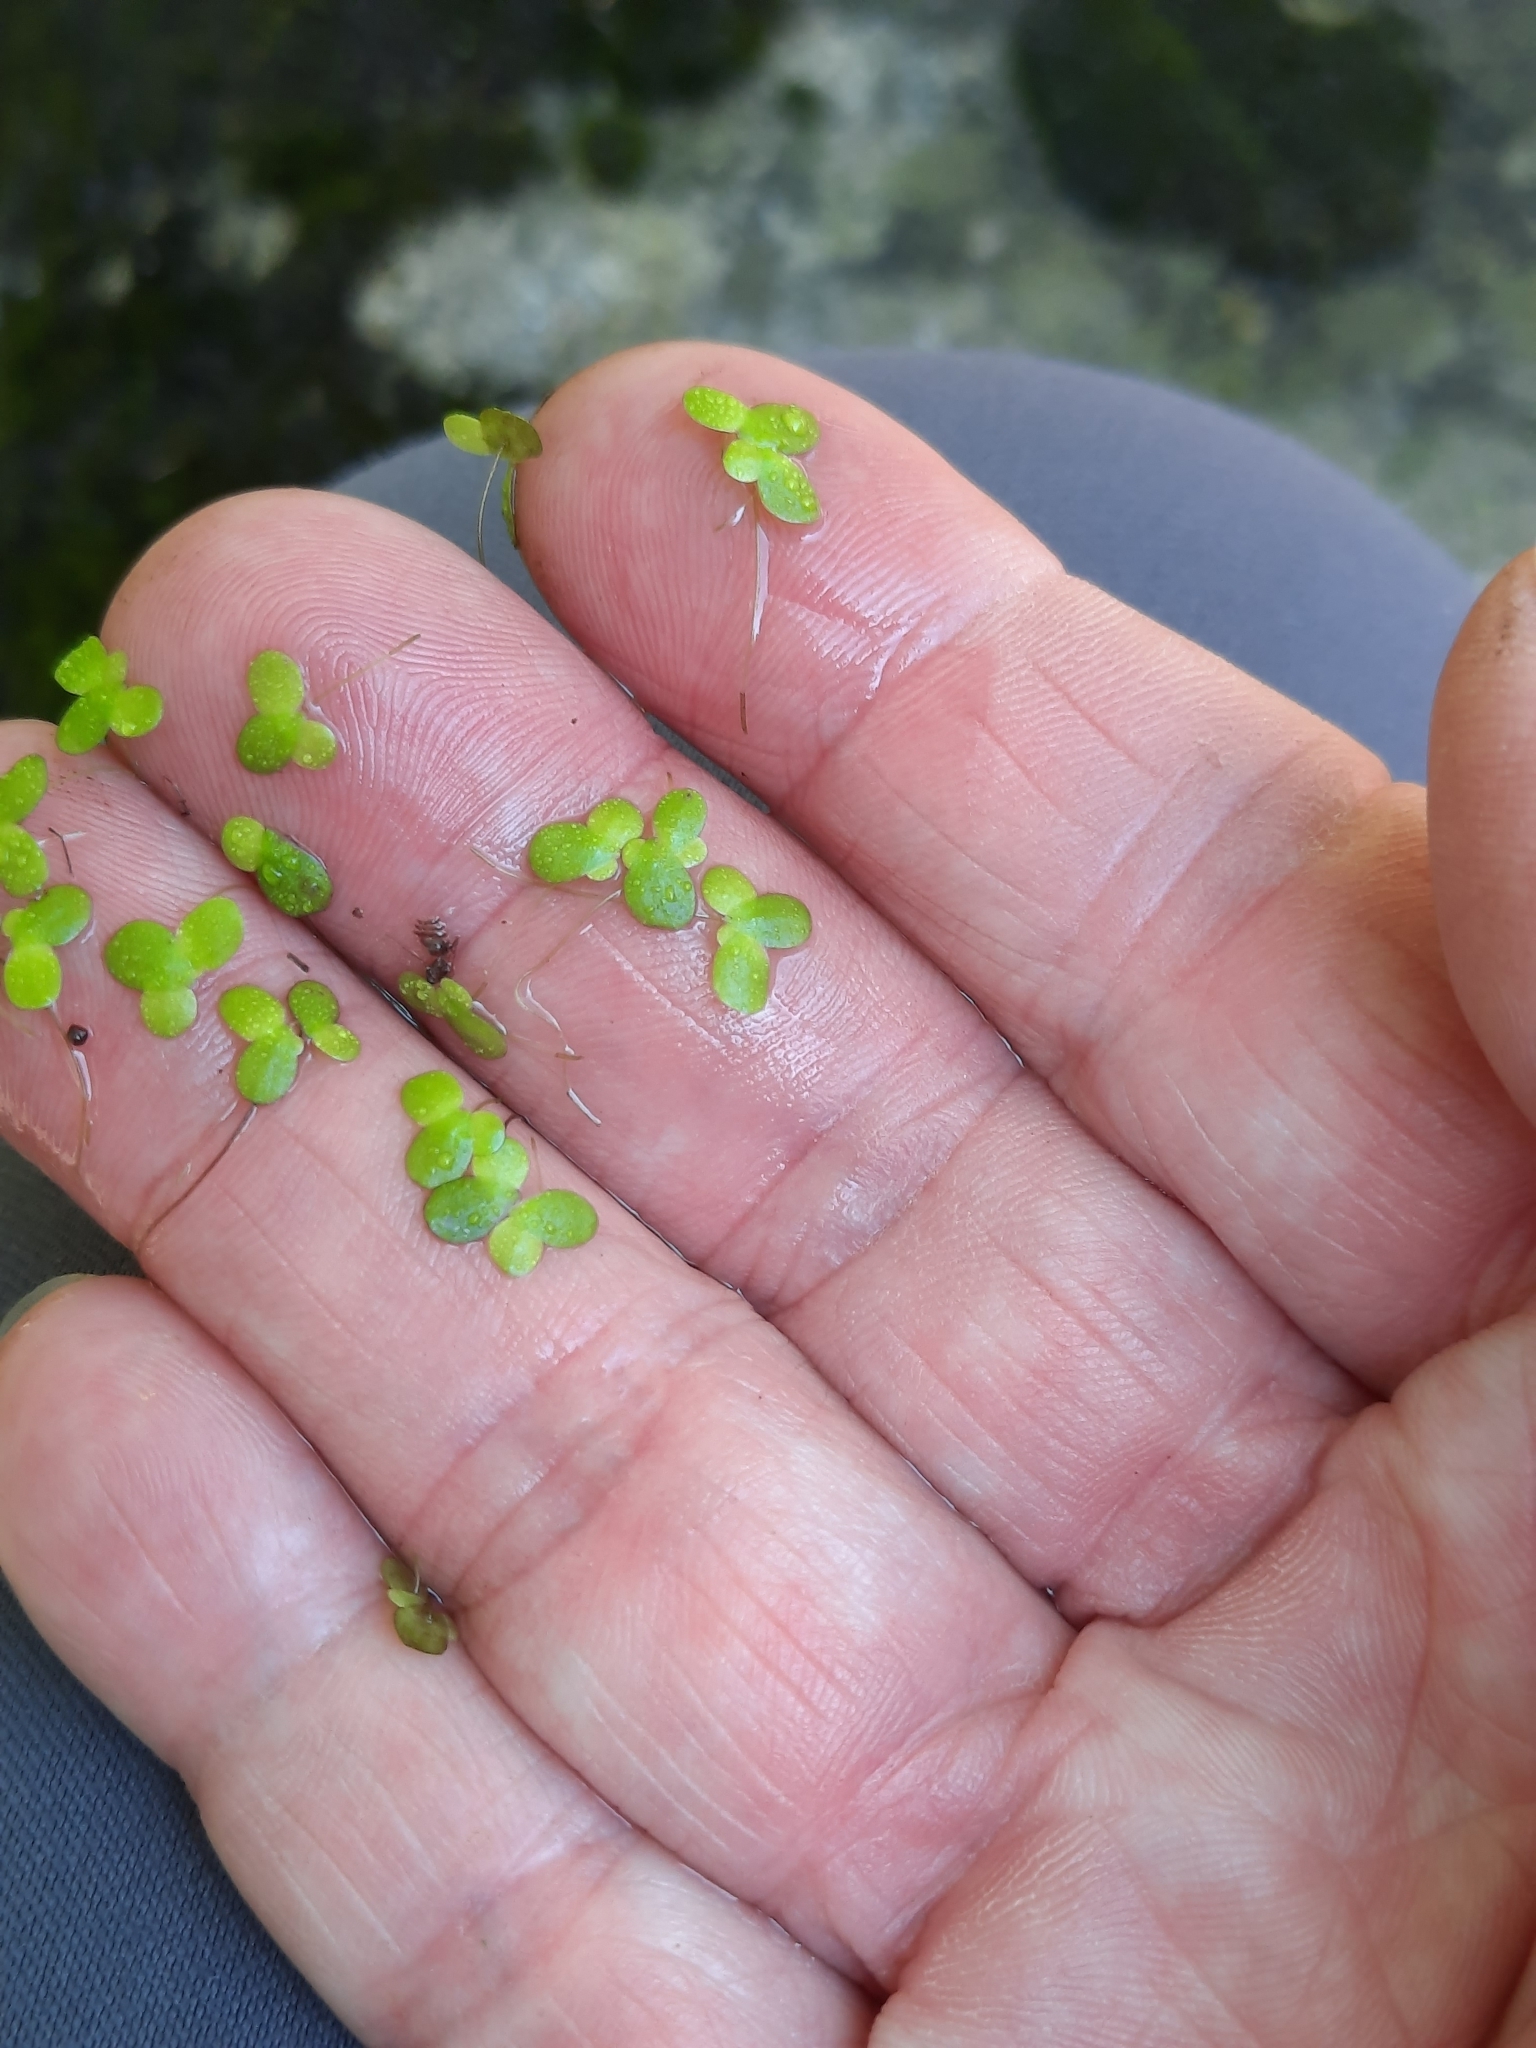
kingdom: Plantae
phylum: Tracheophyta
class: Liliopsida
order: Alismatales
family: Araceae
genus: Lemna
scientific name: Lemna minor
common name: Common duckweed
